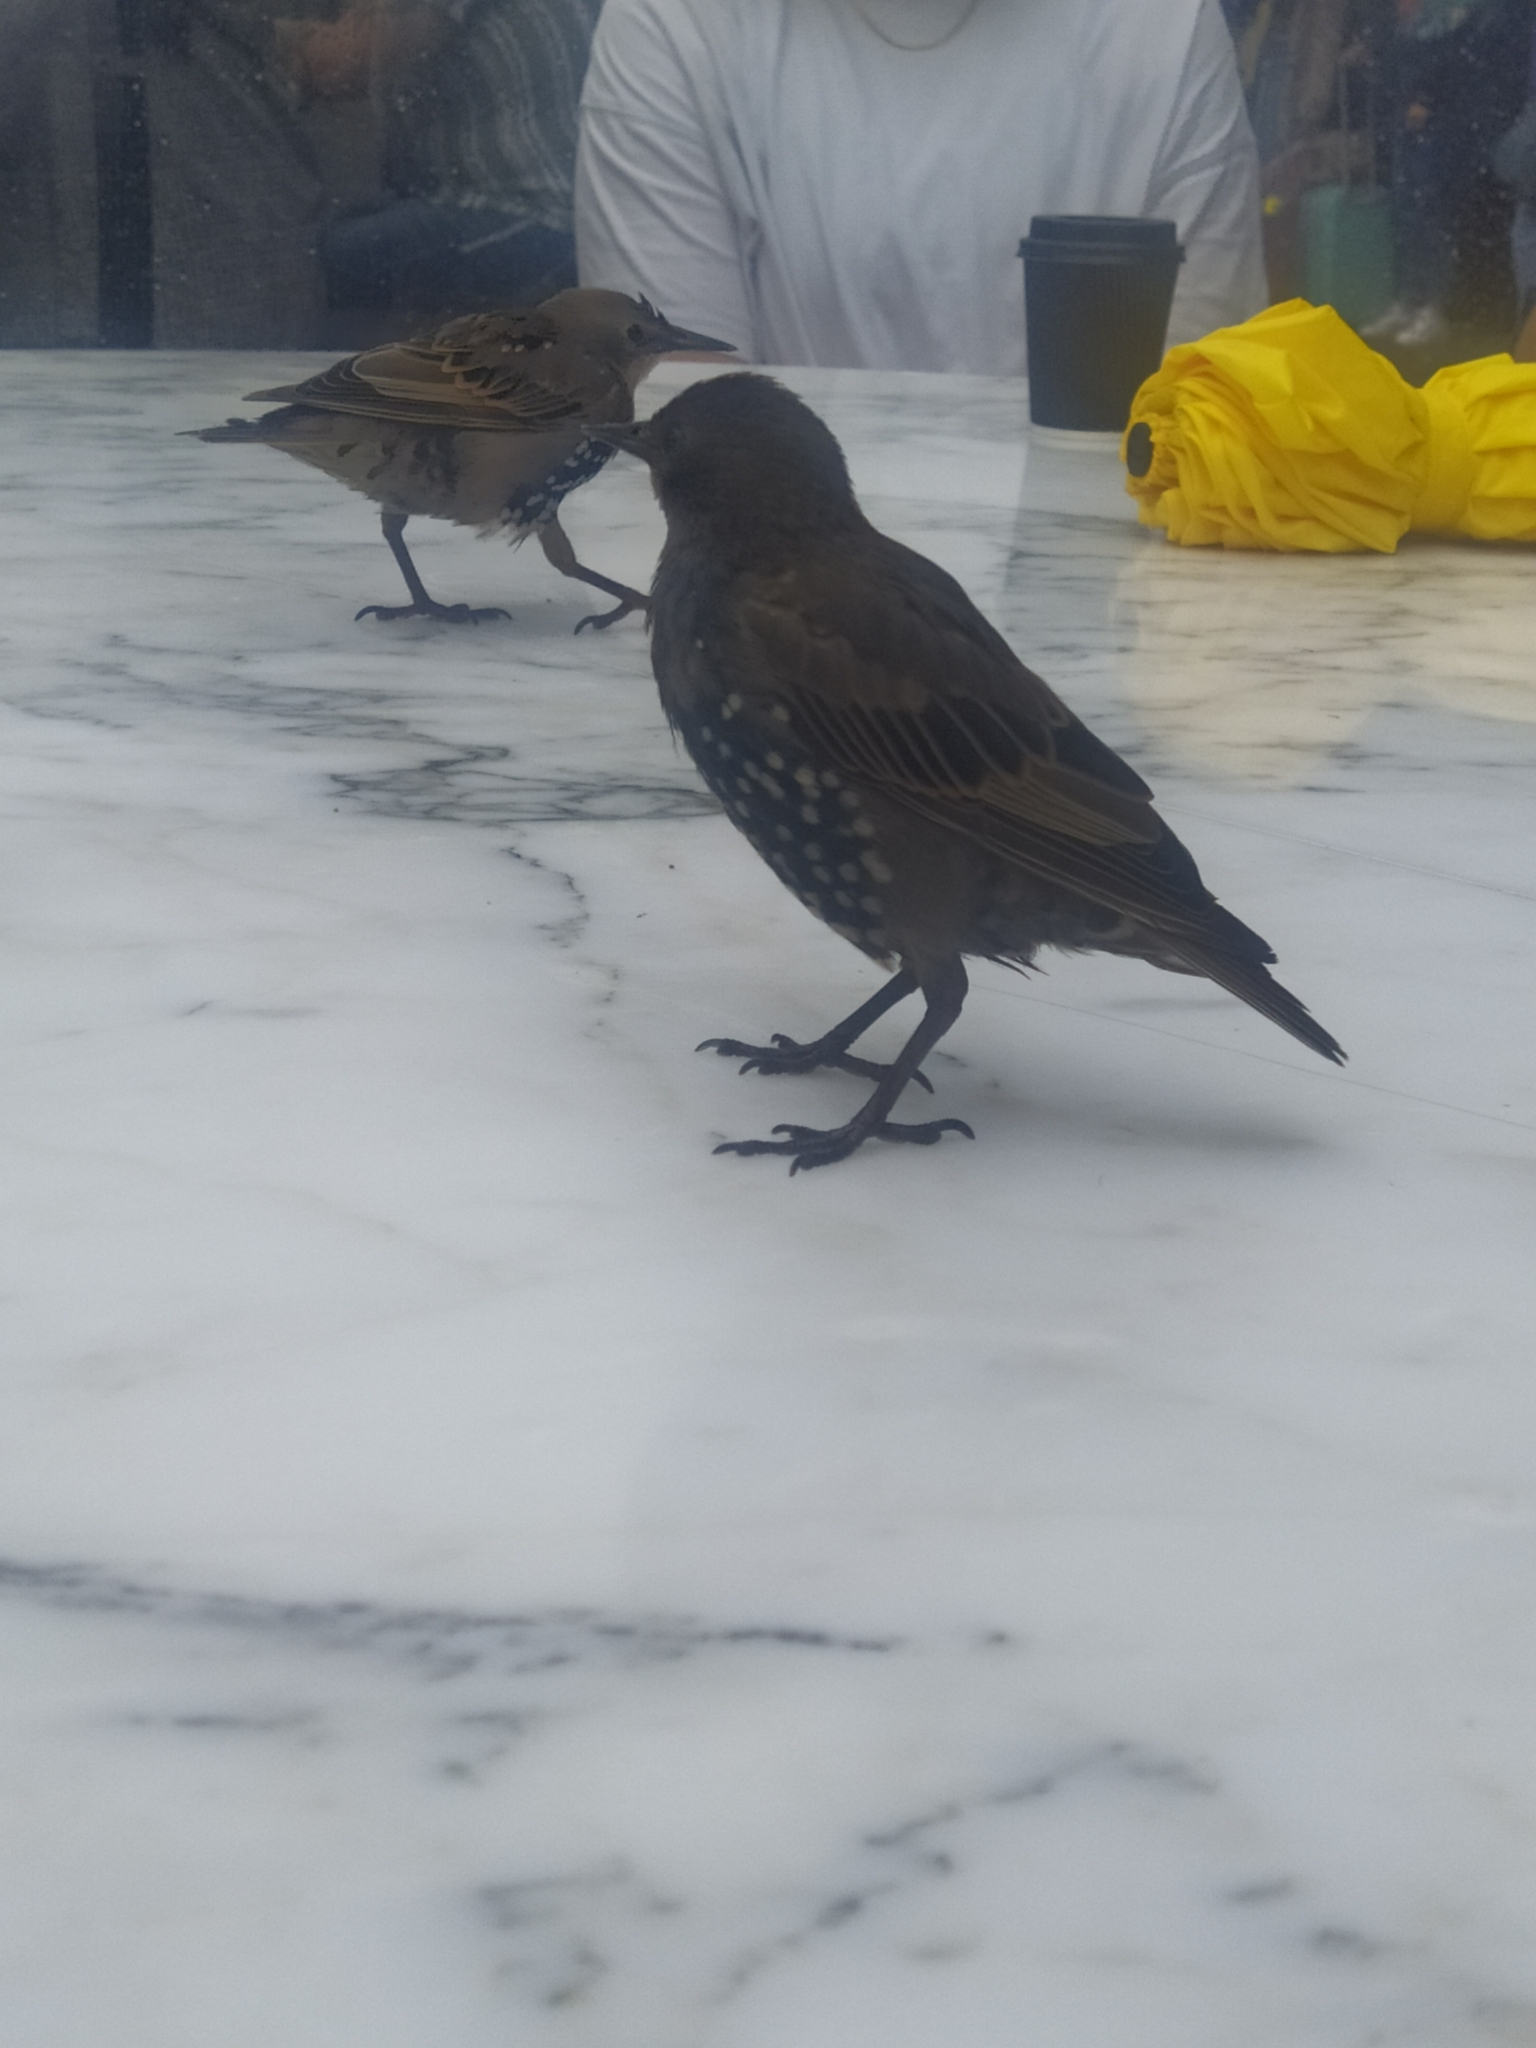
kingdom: Animalia
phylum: Chordata
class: Aves
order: Passeriformes
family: Sturnidae
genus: Sturnus
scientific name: Sturnus vulgaris
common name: Common starling
